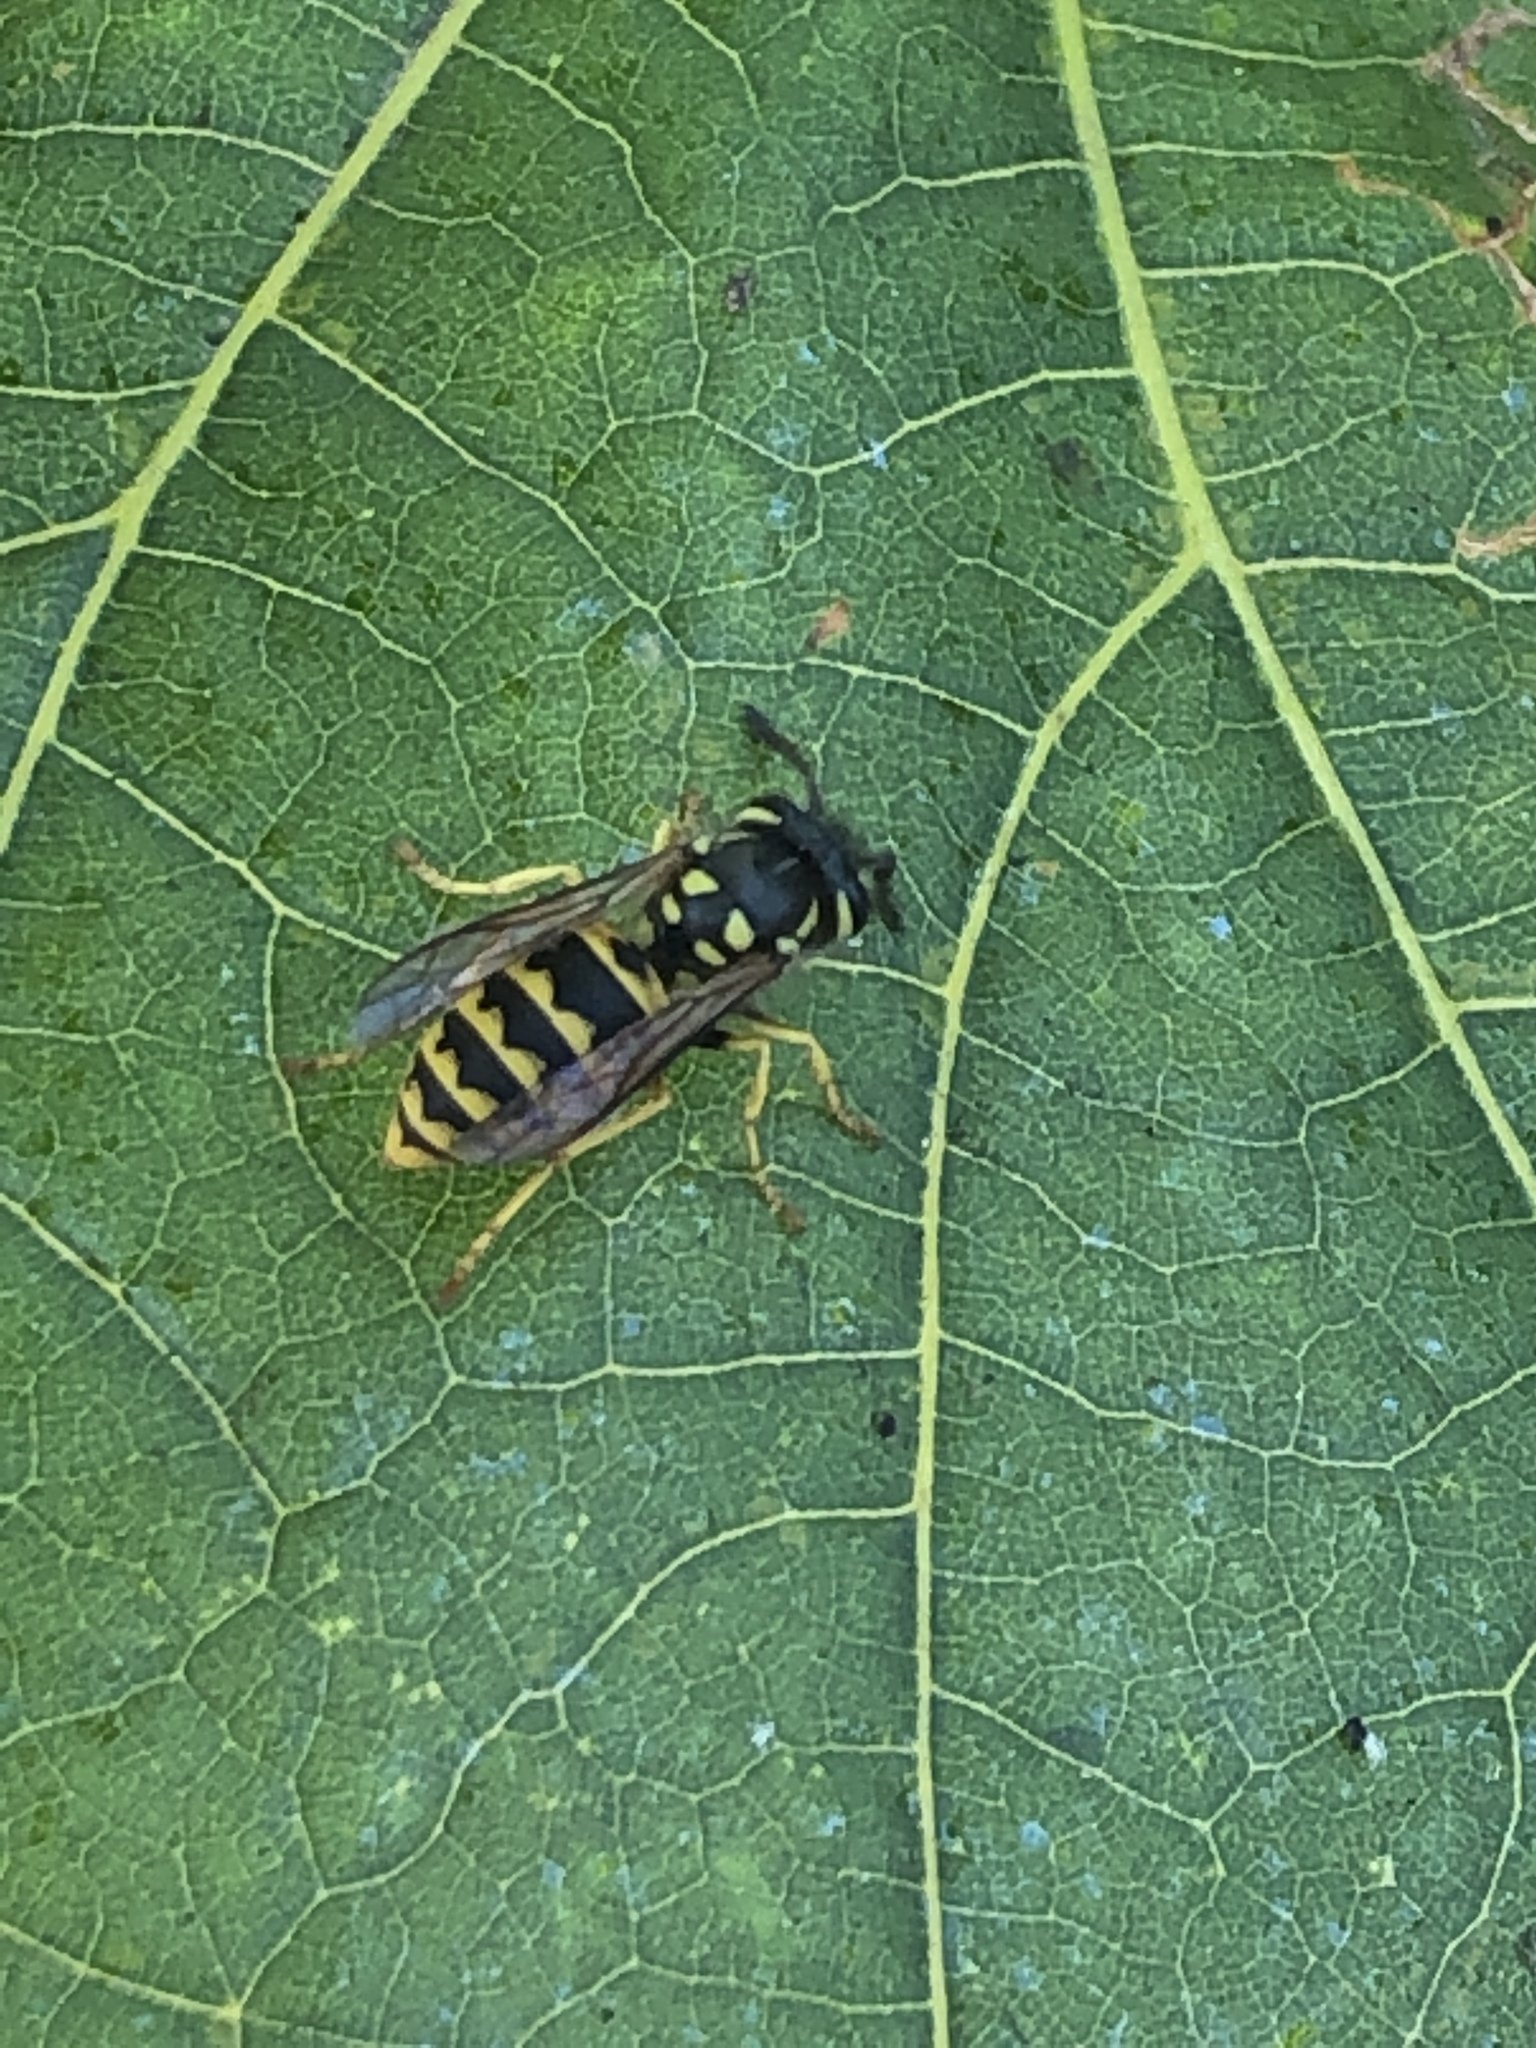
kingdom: Animalia
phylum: Arthropoda
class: Insecta
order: Hymenoptera
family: Vespidae
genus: Vespula
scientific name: Vespula germanica
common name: German wasp
